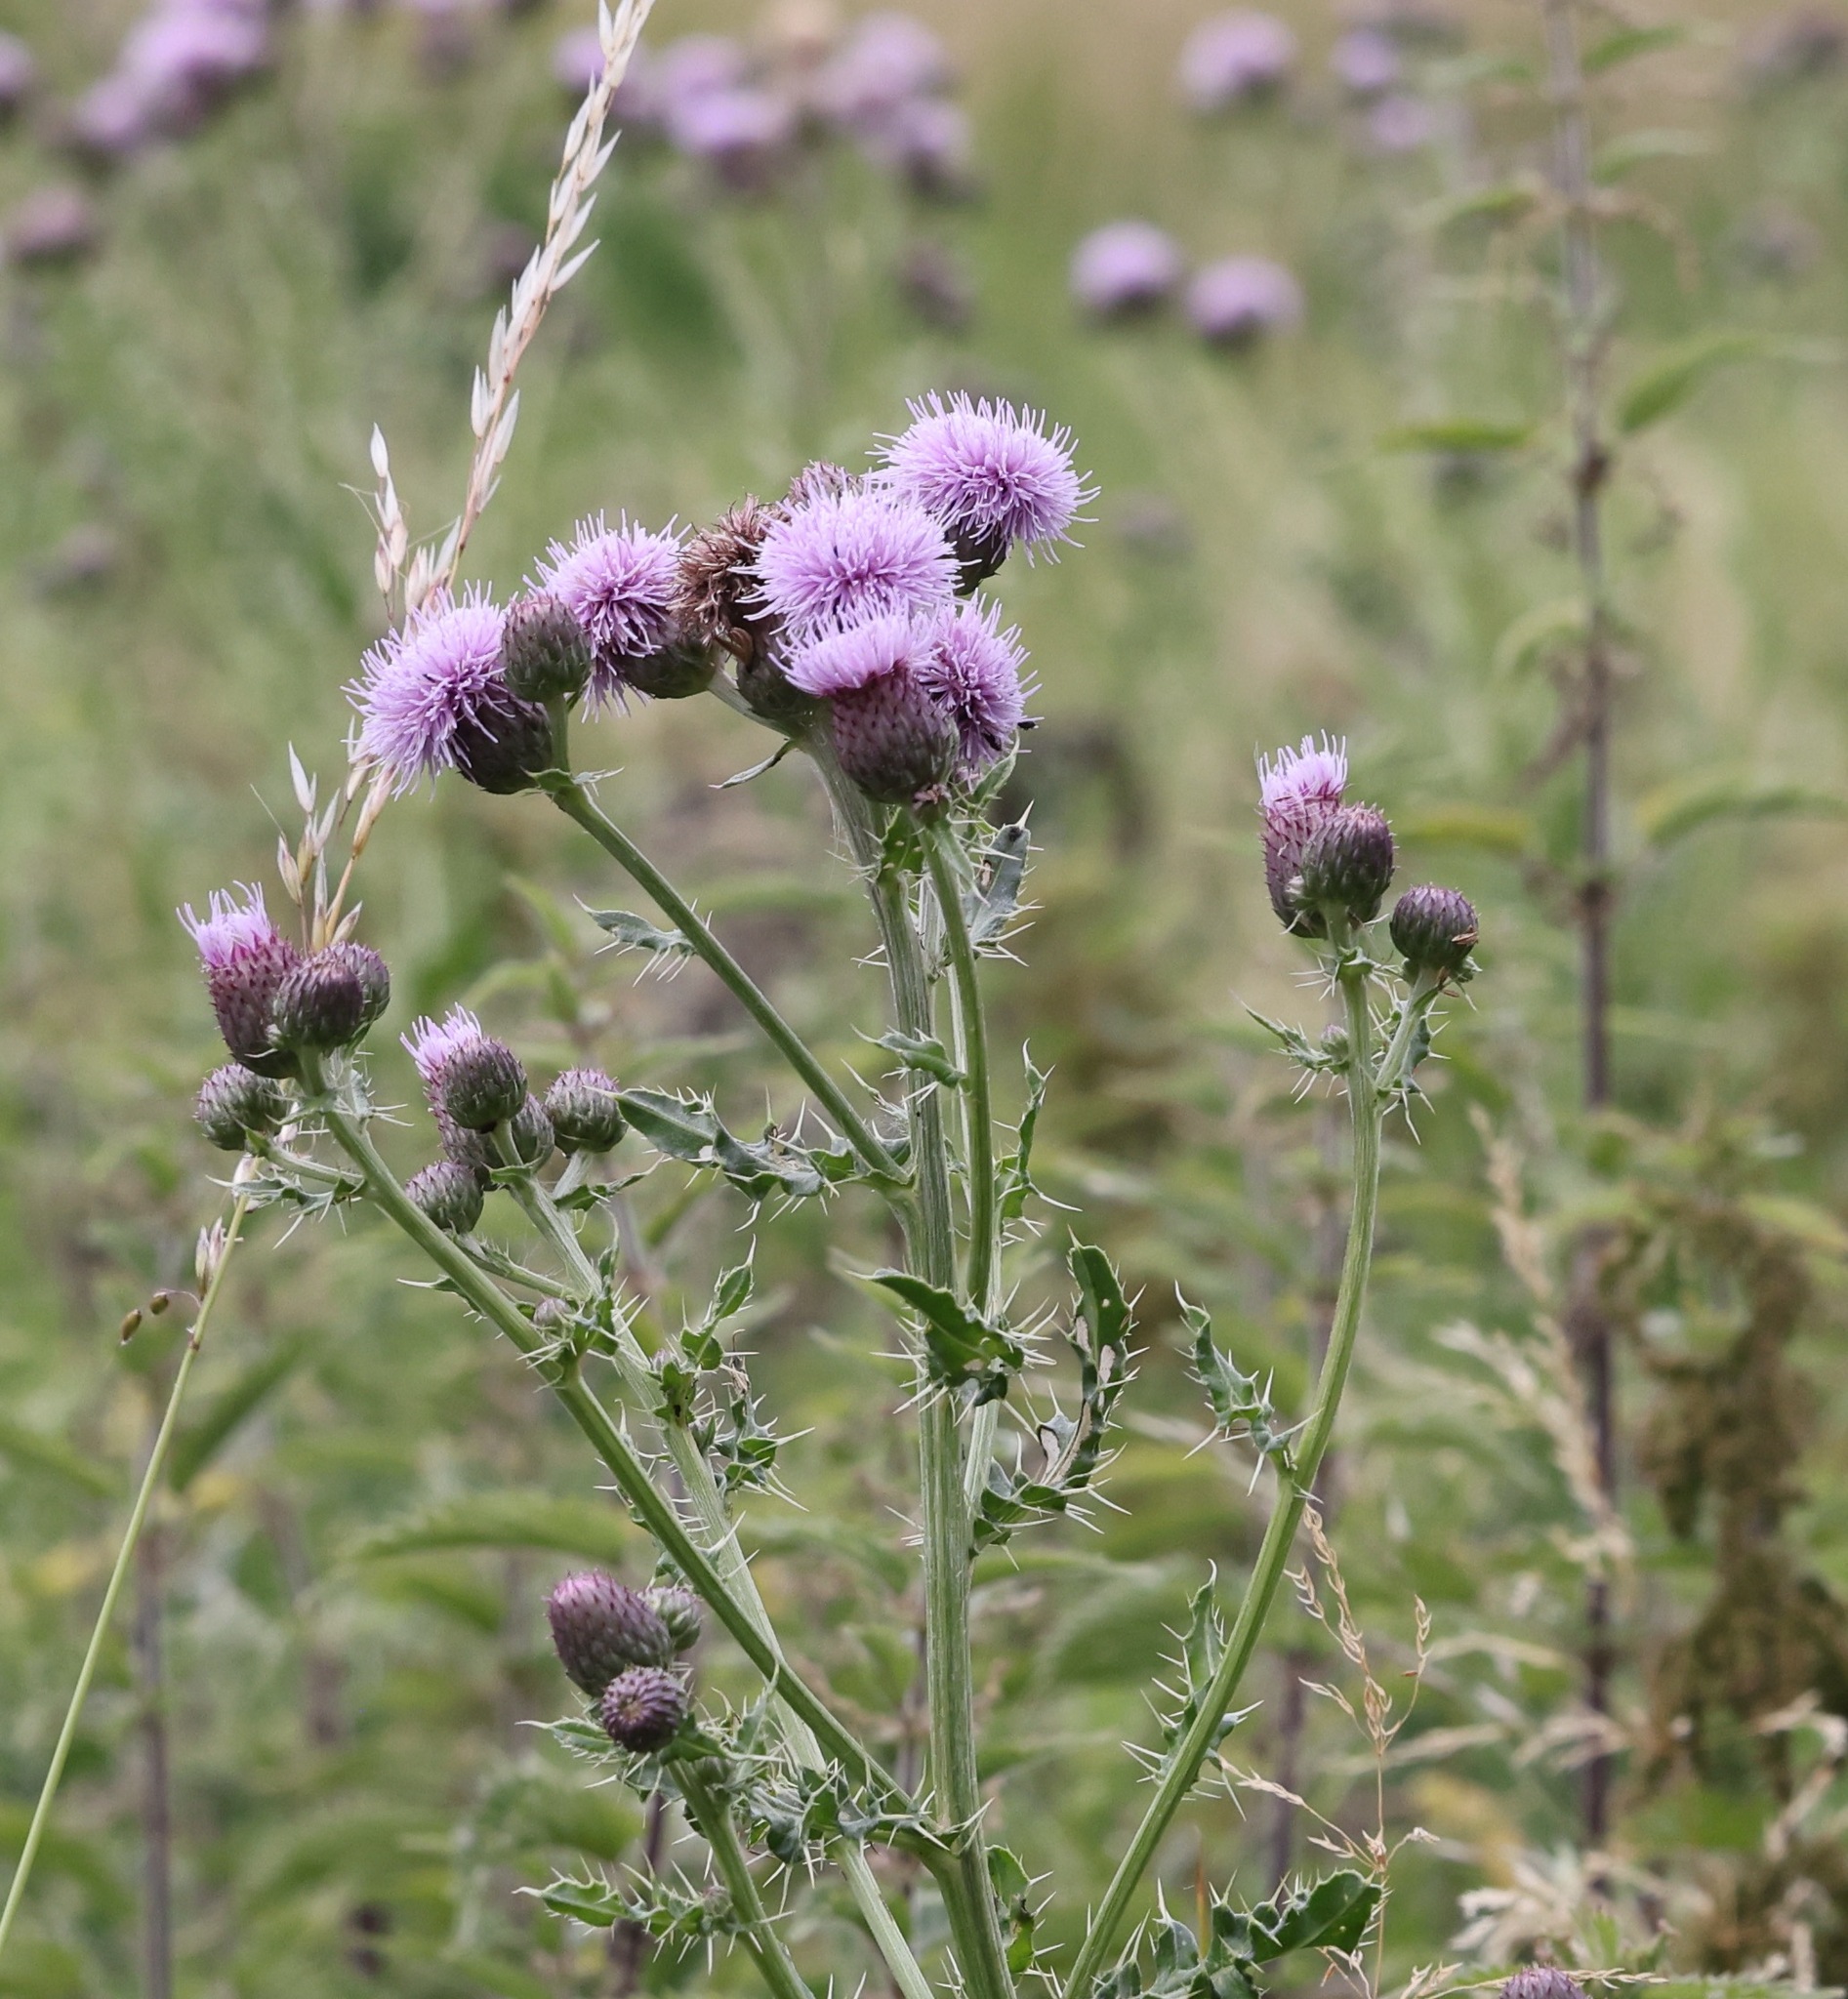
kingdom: Plantae
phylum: Tracheophyta
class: Magnoliopsida
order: Asterales
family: Asteraceae
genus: Cirsium
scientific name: Cirsium arvense
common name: Creeping thistle
